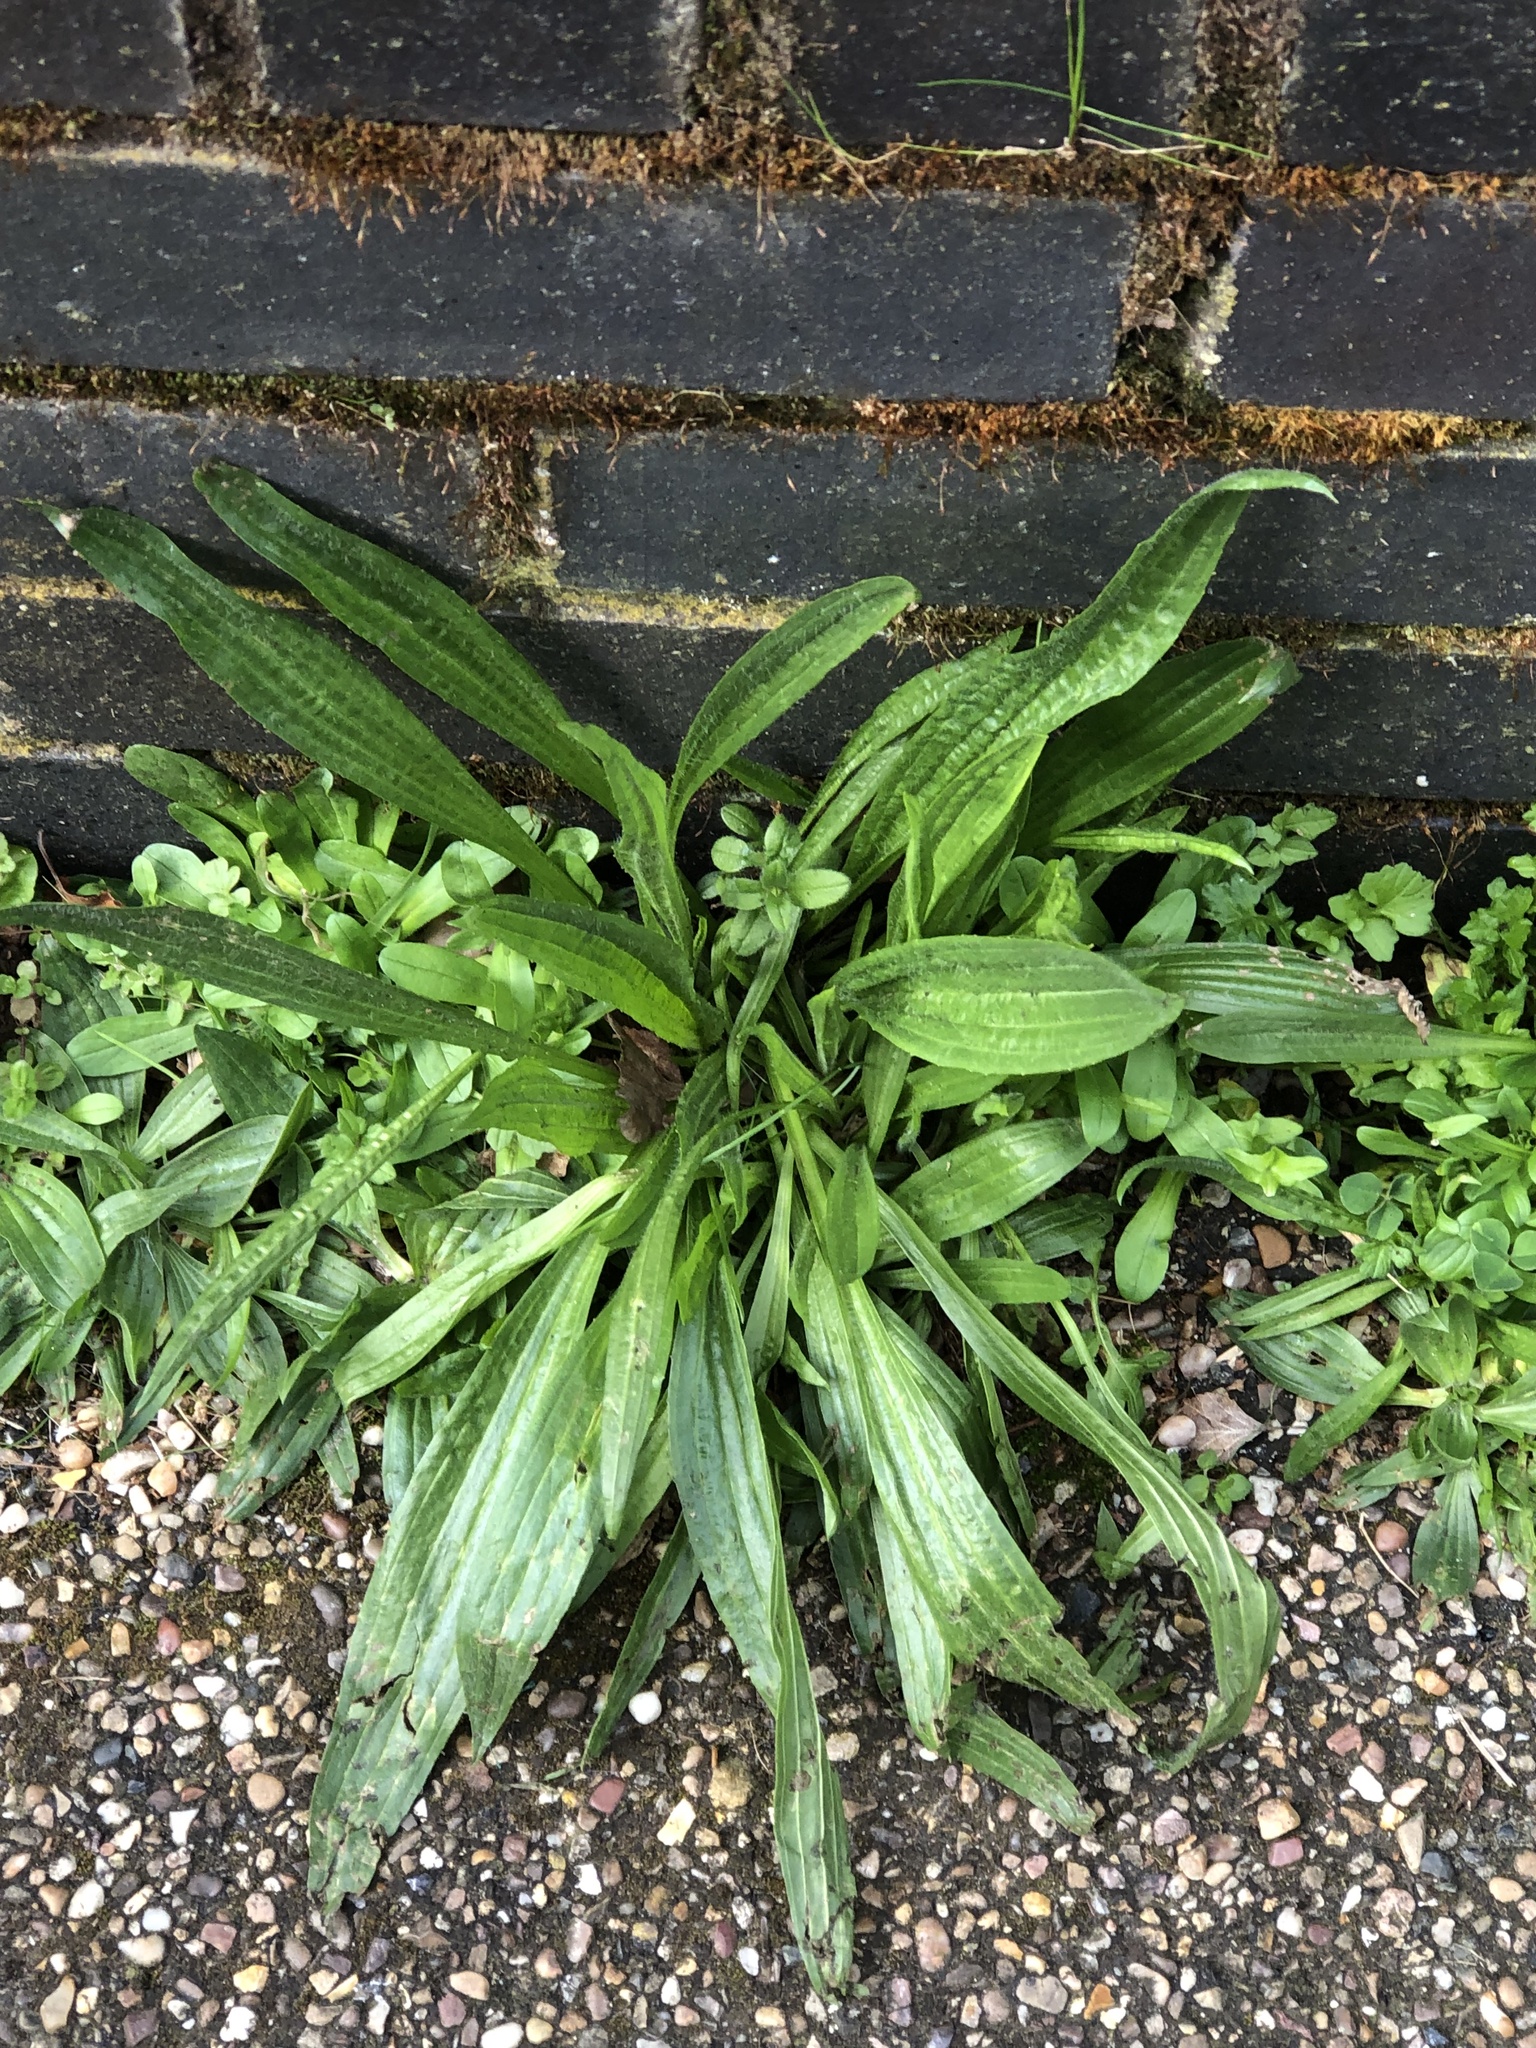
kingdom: Plantae
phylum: Tracheophyta
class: Magnoliopsida
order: Lamiales
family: Plantaginaceae
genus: Plantago
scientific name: Plantago lanceolata
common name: Ribwort plantain
